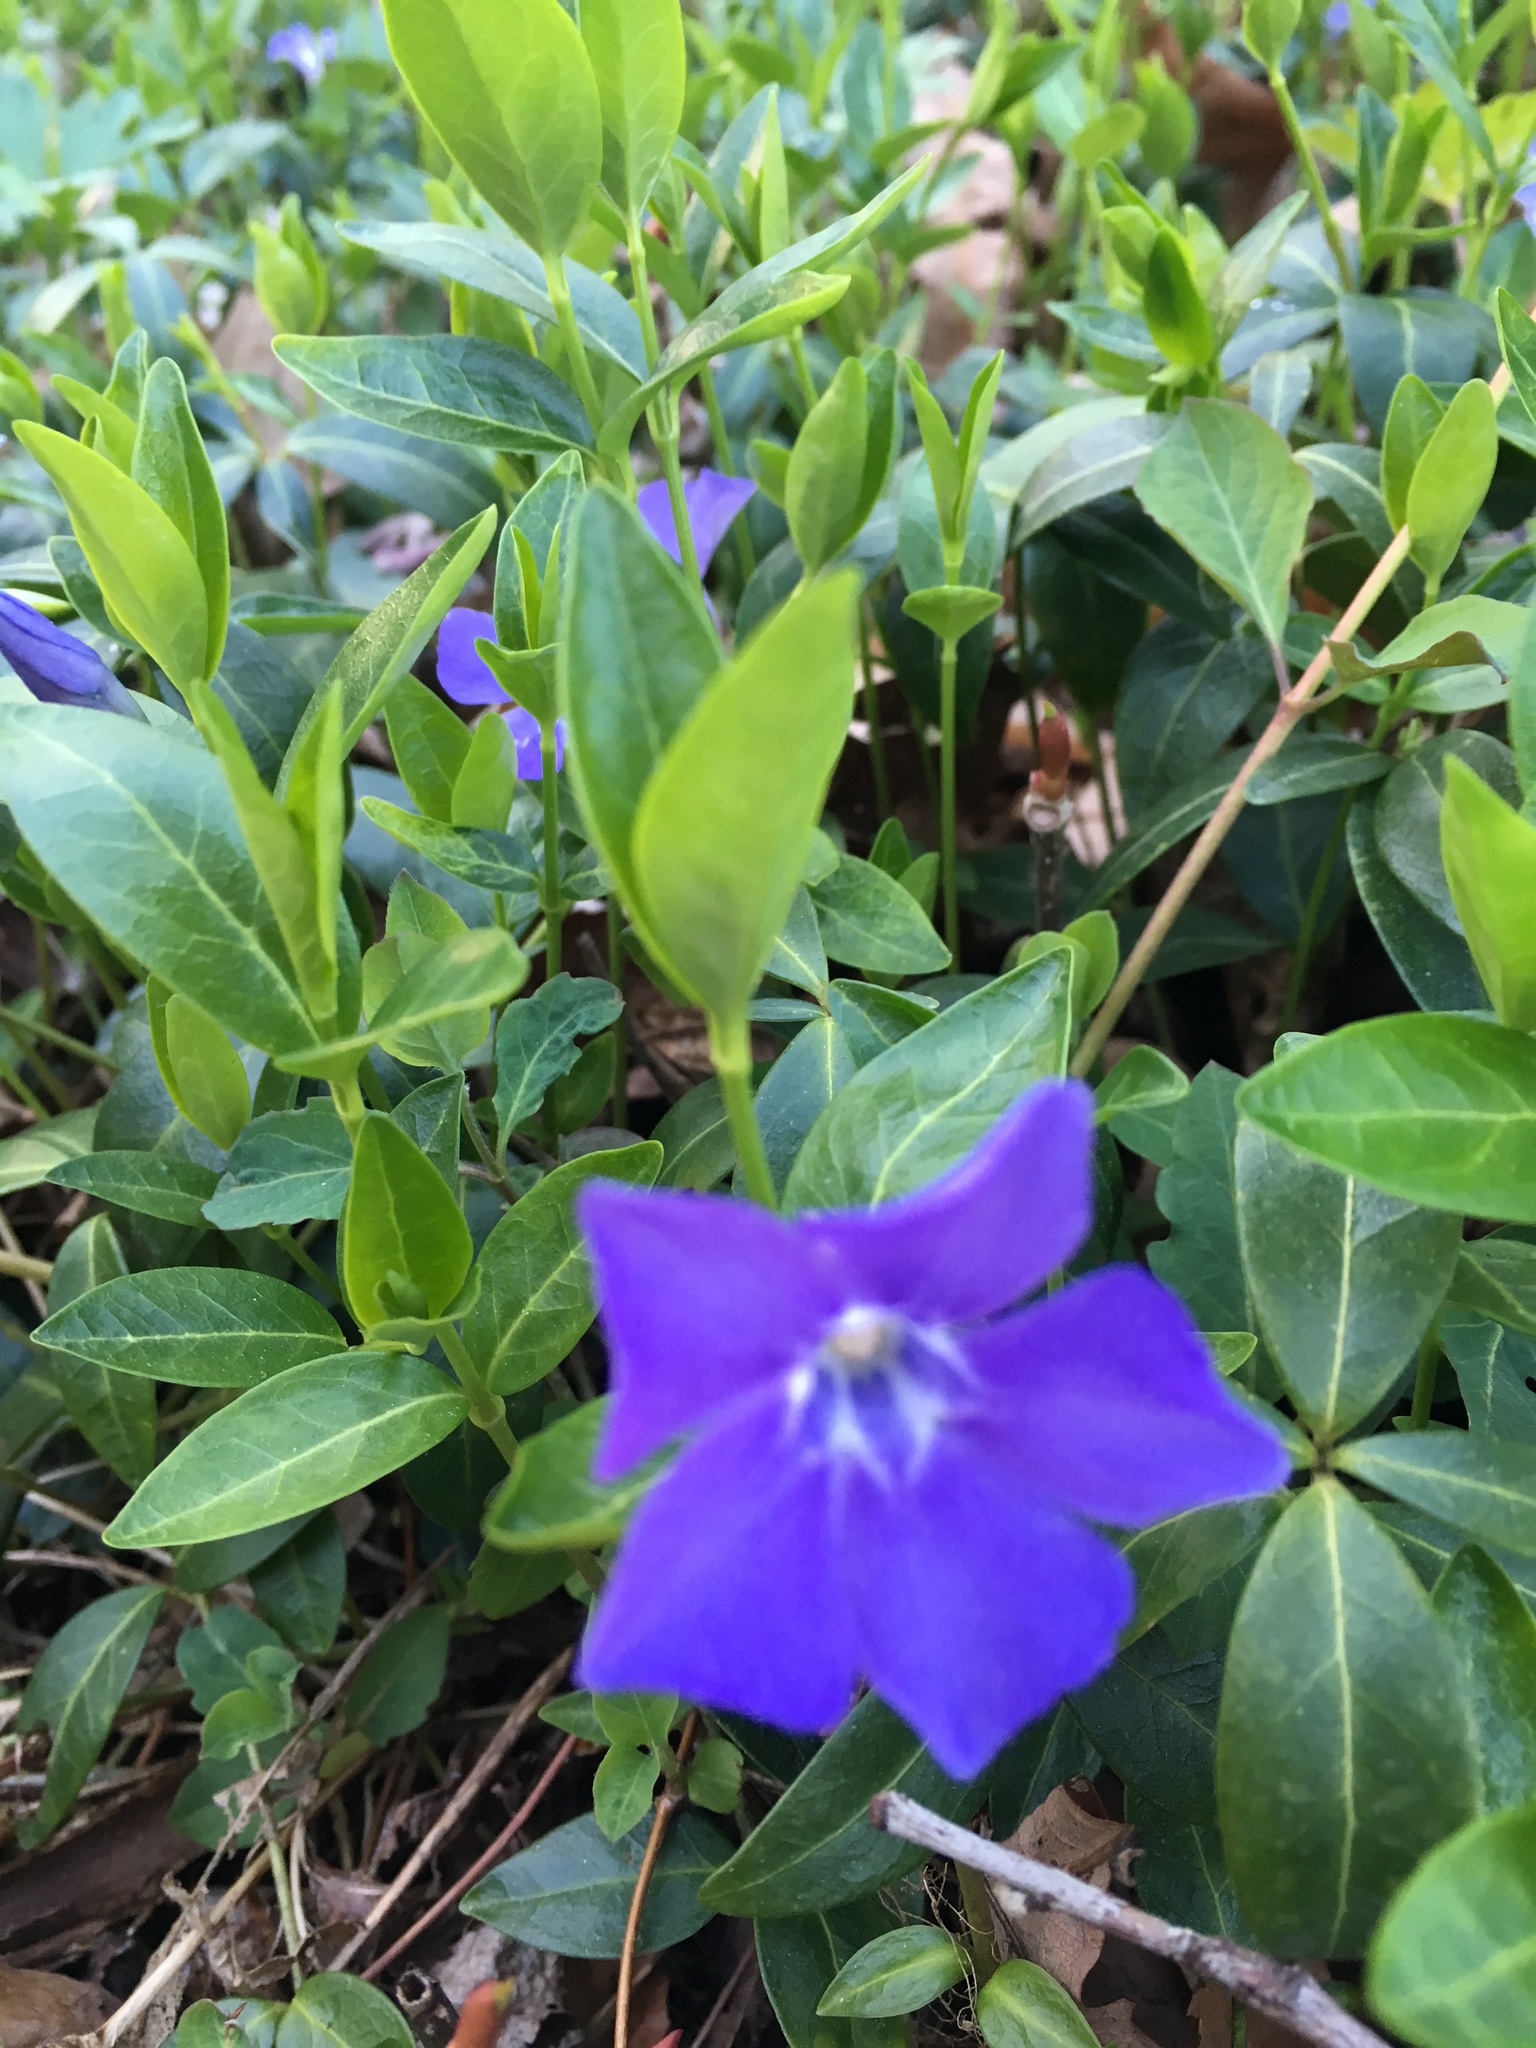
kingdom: Plantae
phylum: Tracheophyta
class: Magnoliopsida
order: Gentianales
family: Apocynaceae
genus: Vinca
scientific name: Vinca minor
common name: Lesser periwinkle
